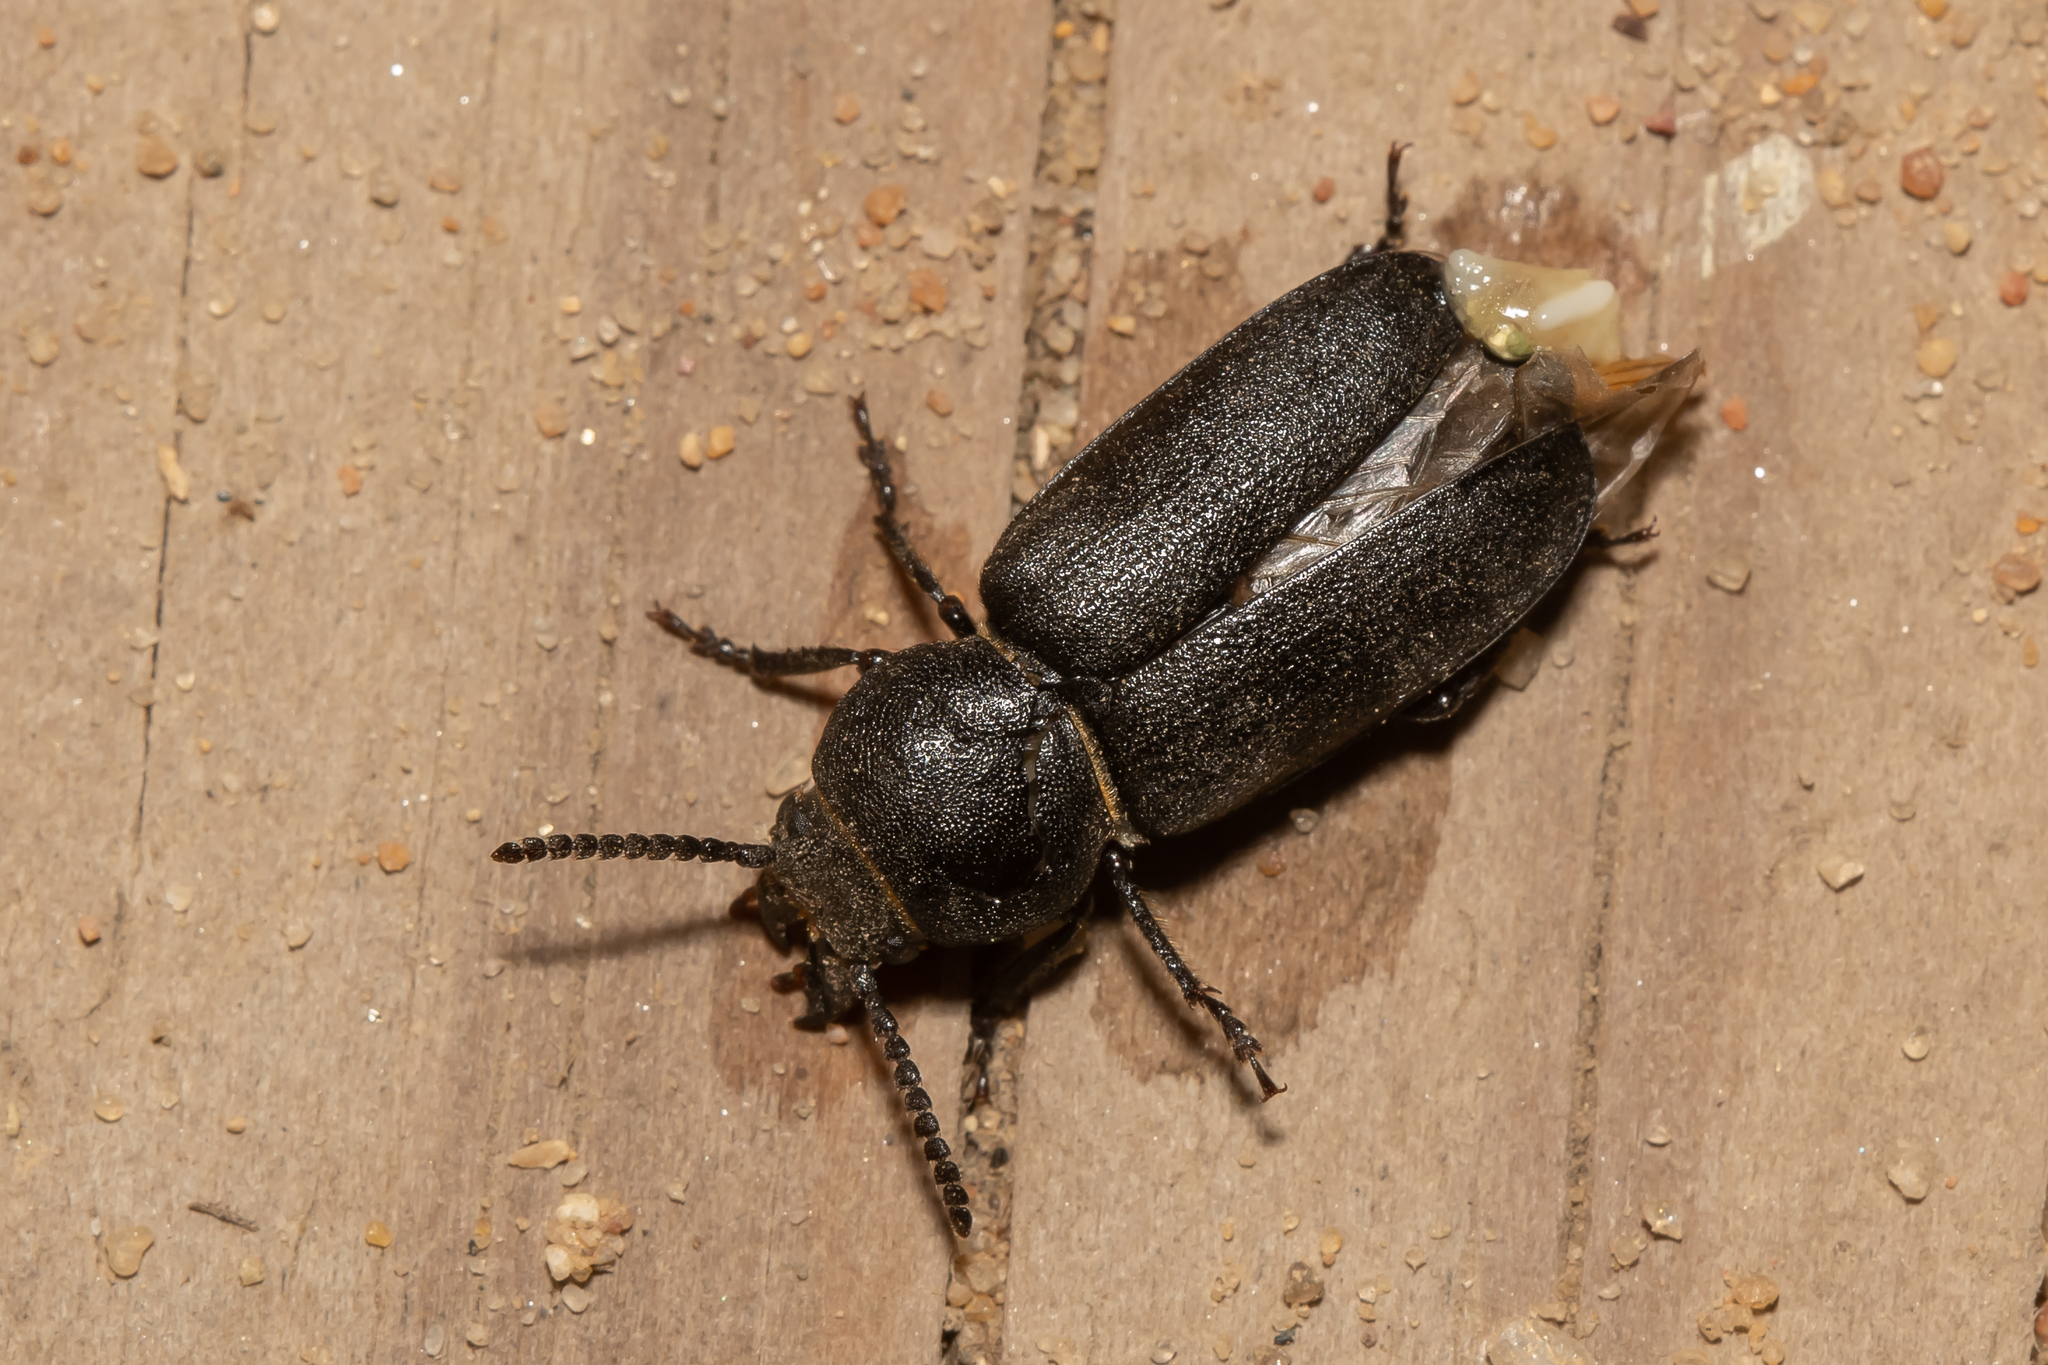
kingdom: Animalia
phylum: Arthropoda
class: Insecta
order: Coleoptera
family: Cerambycidae
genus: Spondylis
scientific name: Spondylis buprestoides
